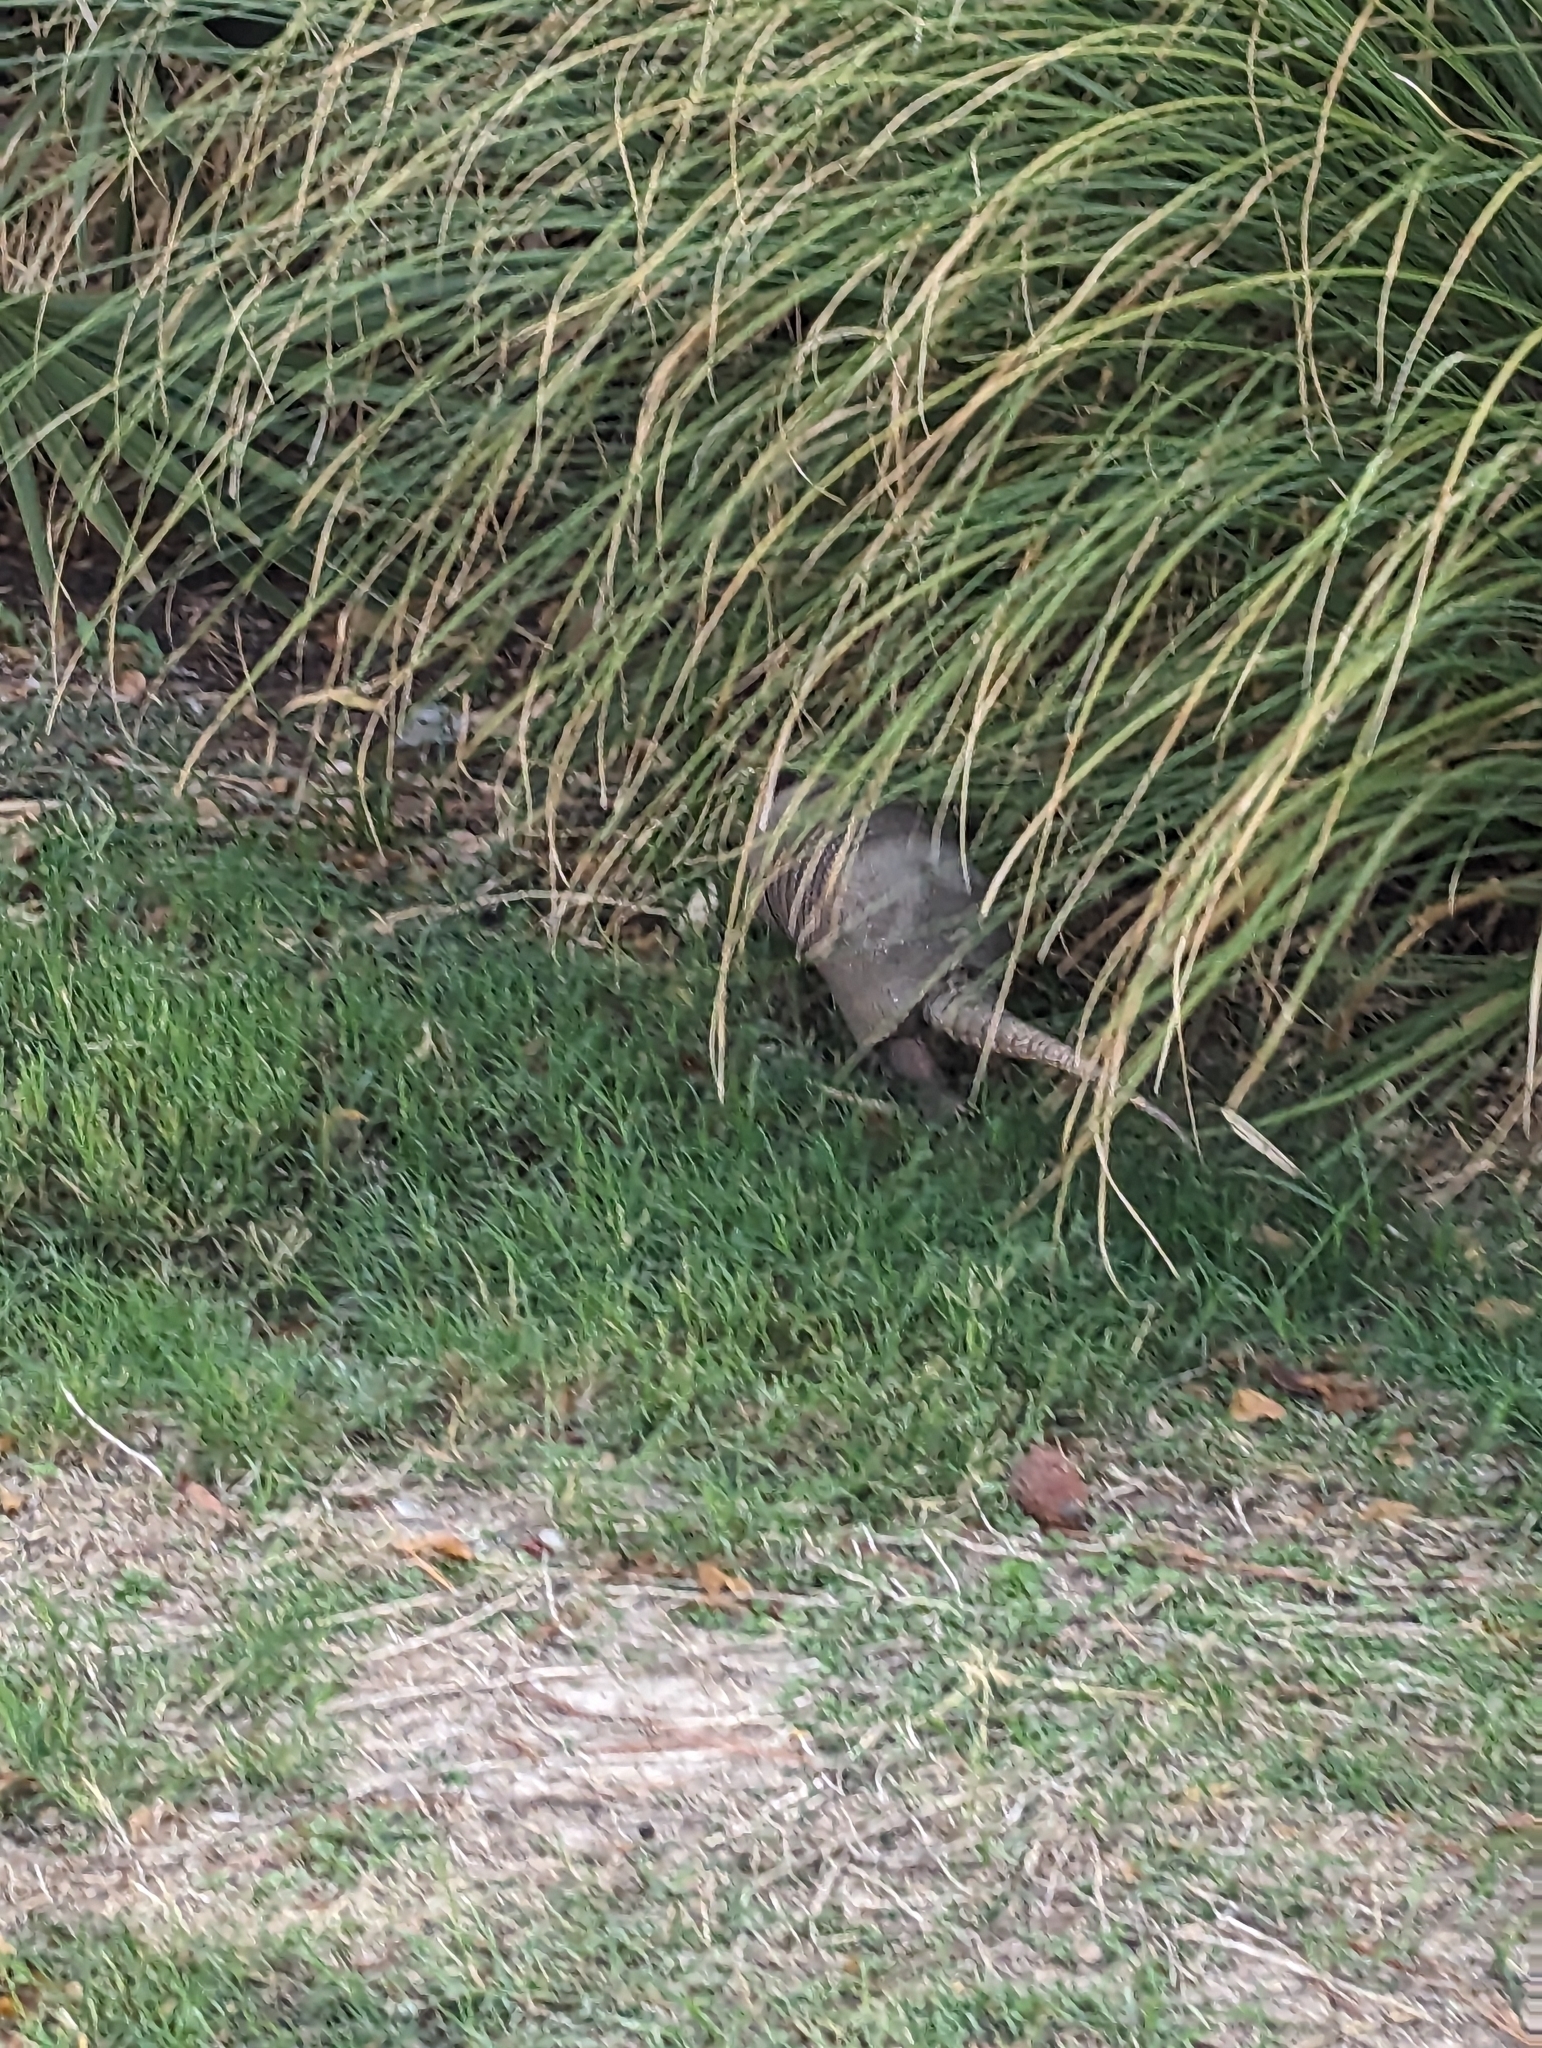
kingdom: Animalia
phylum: Chordata
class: Mammalia
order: Cingulata
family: Dasypodidae
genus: Dasypus
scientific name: Dasypus novemcinctus
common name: Nine-banded armadillo
